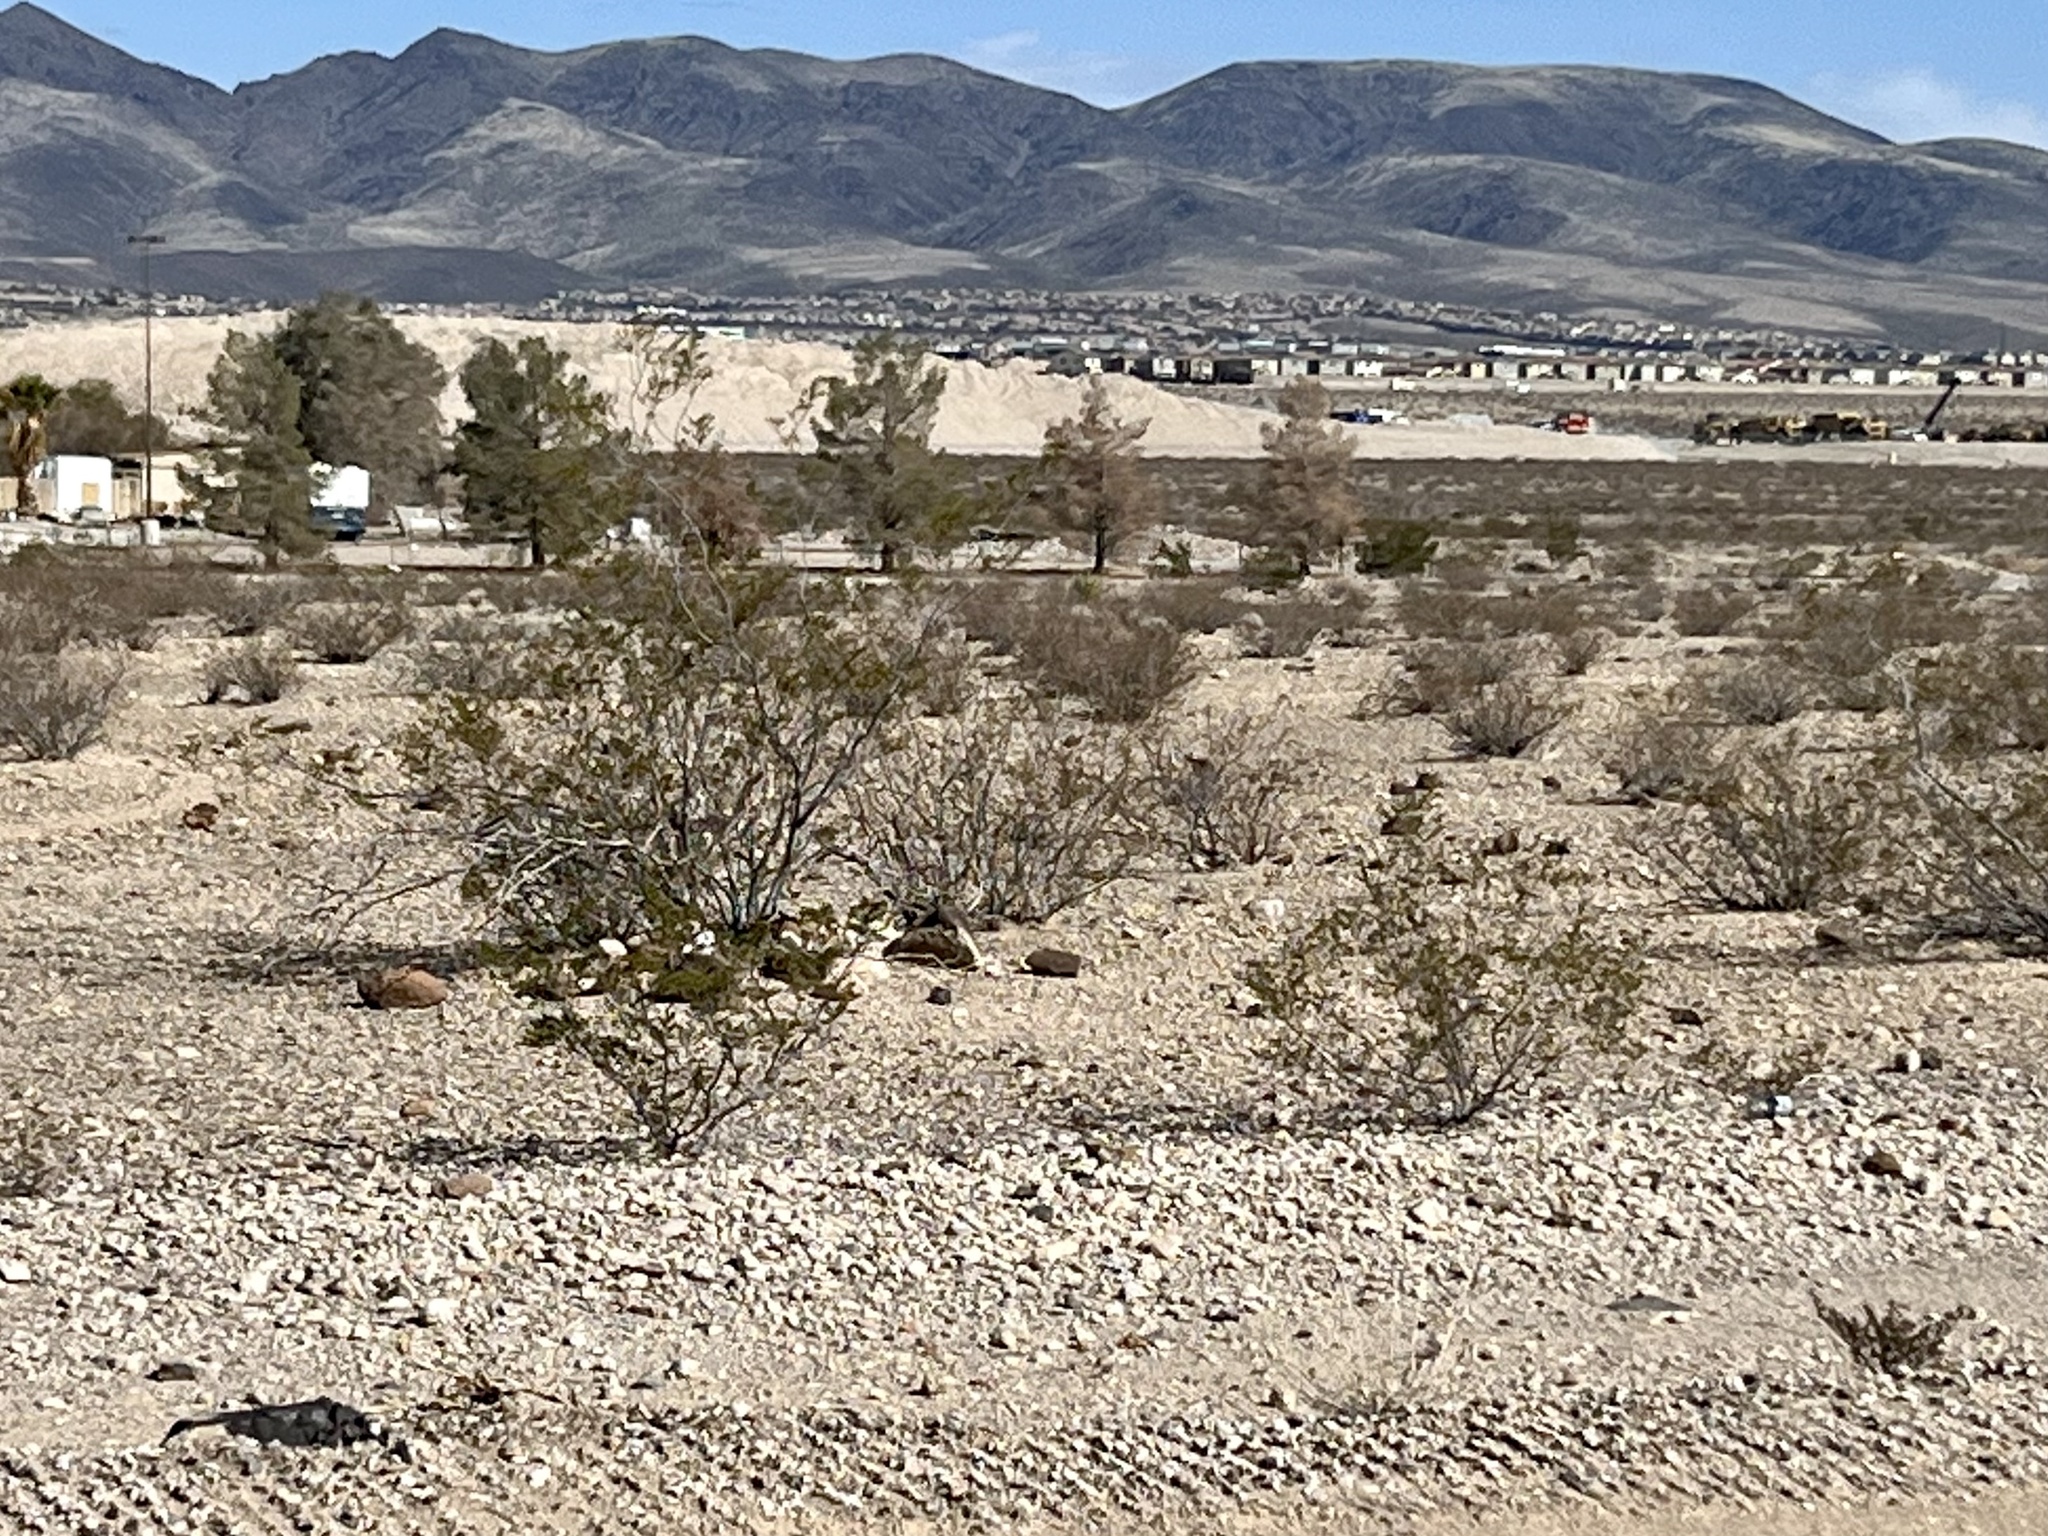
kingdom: Plantae
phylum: Tracheophyta
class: Magnoliopsida
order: Zygophyllales
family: Zygophyllaceae
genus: Larrea
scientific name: Larrea tridentata
